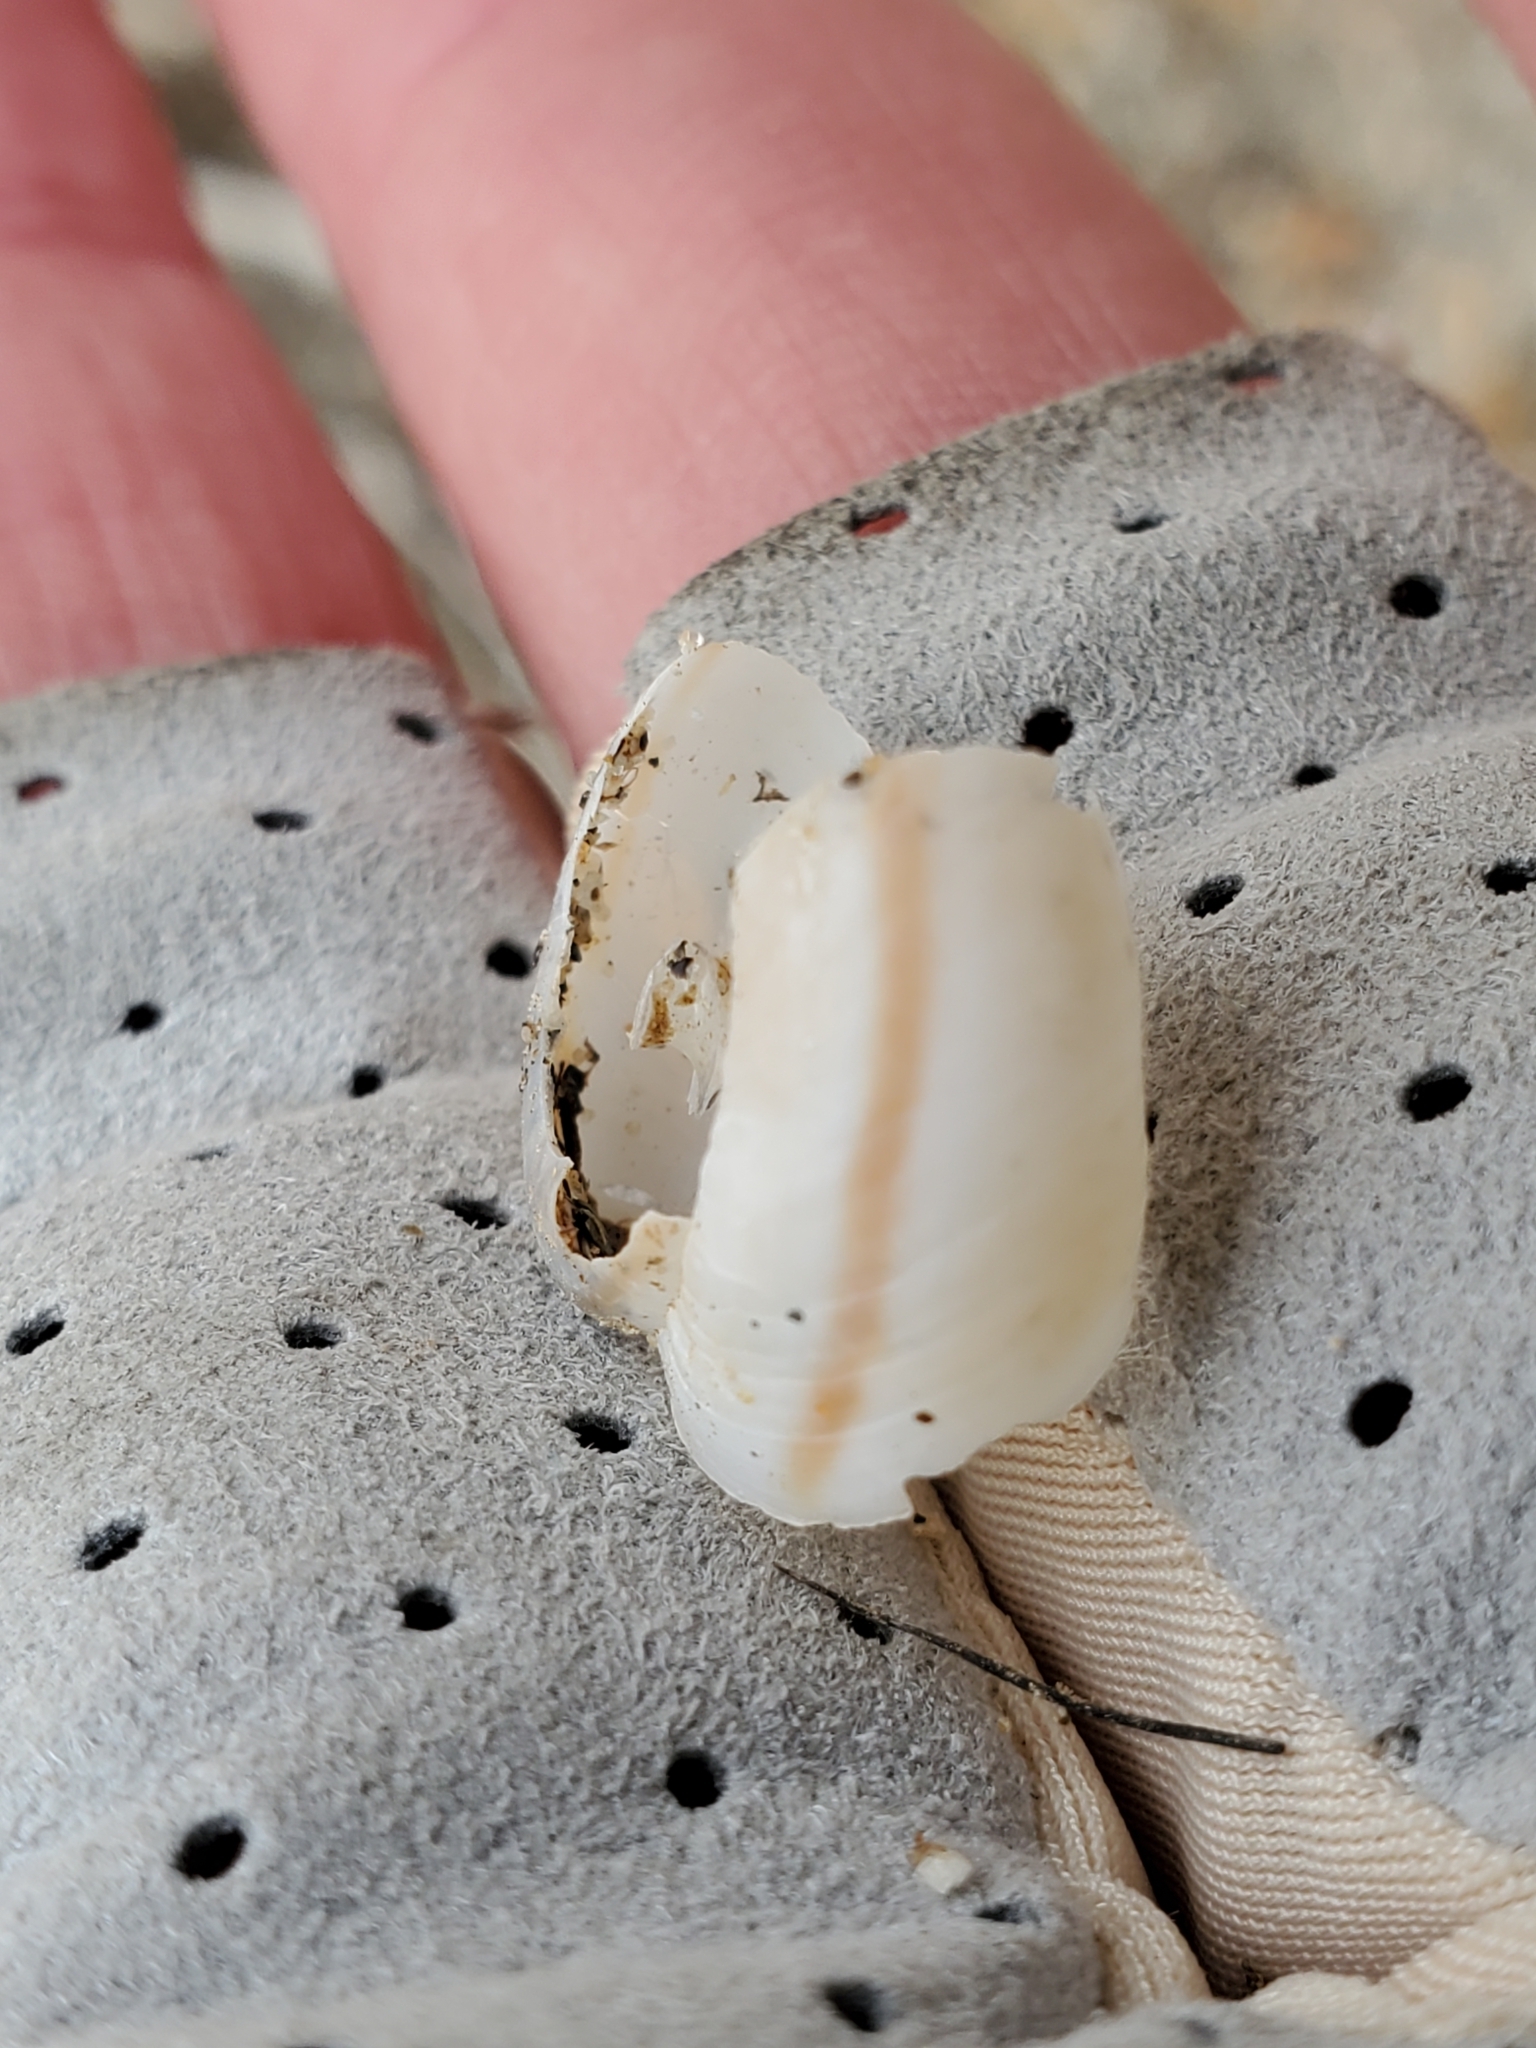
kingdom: Animalia
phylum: Mollusca
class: Gastropoda
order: Stylommatophora
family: Xanthonychidae
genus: Sonorelix
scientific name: Sonorelix borregoensis
